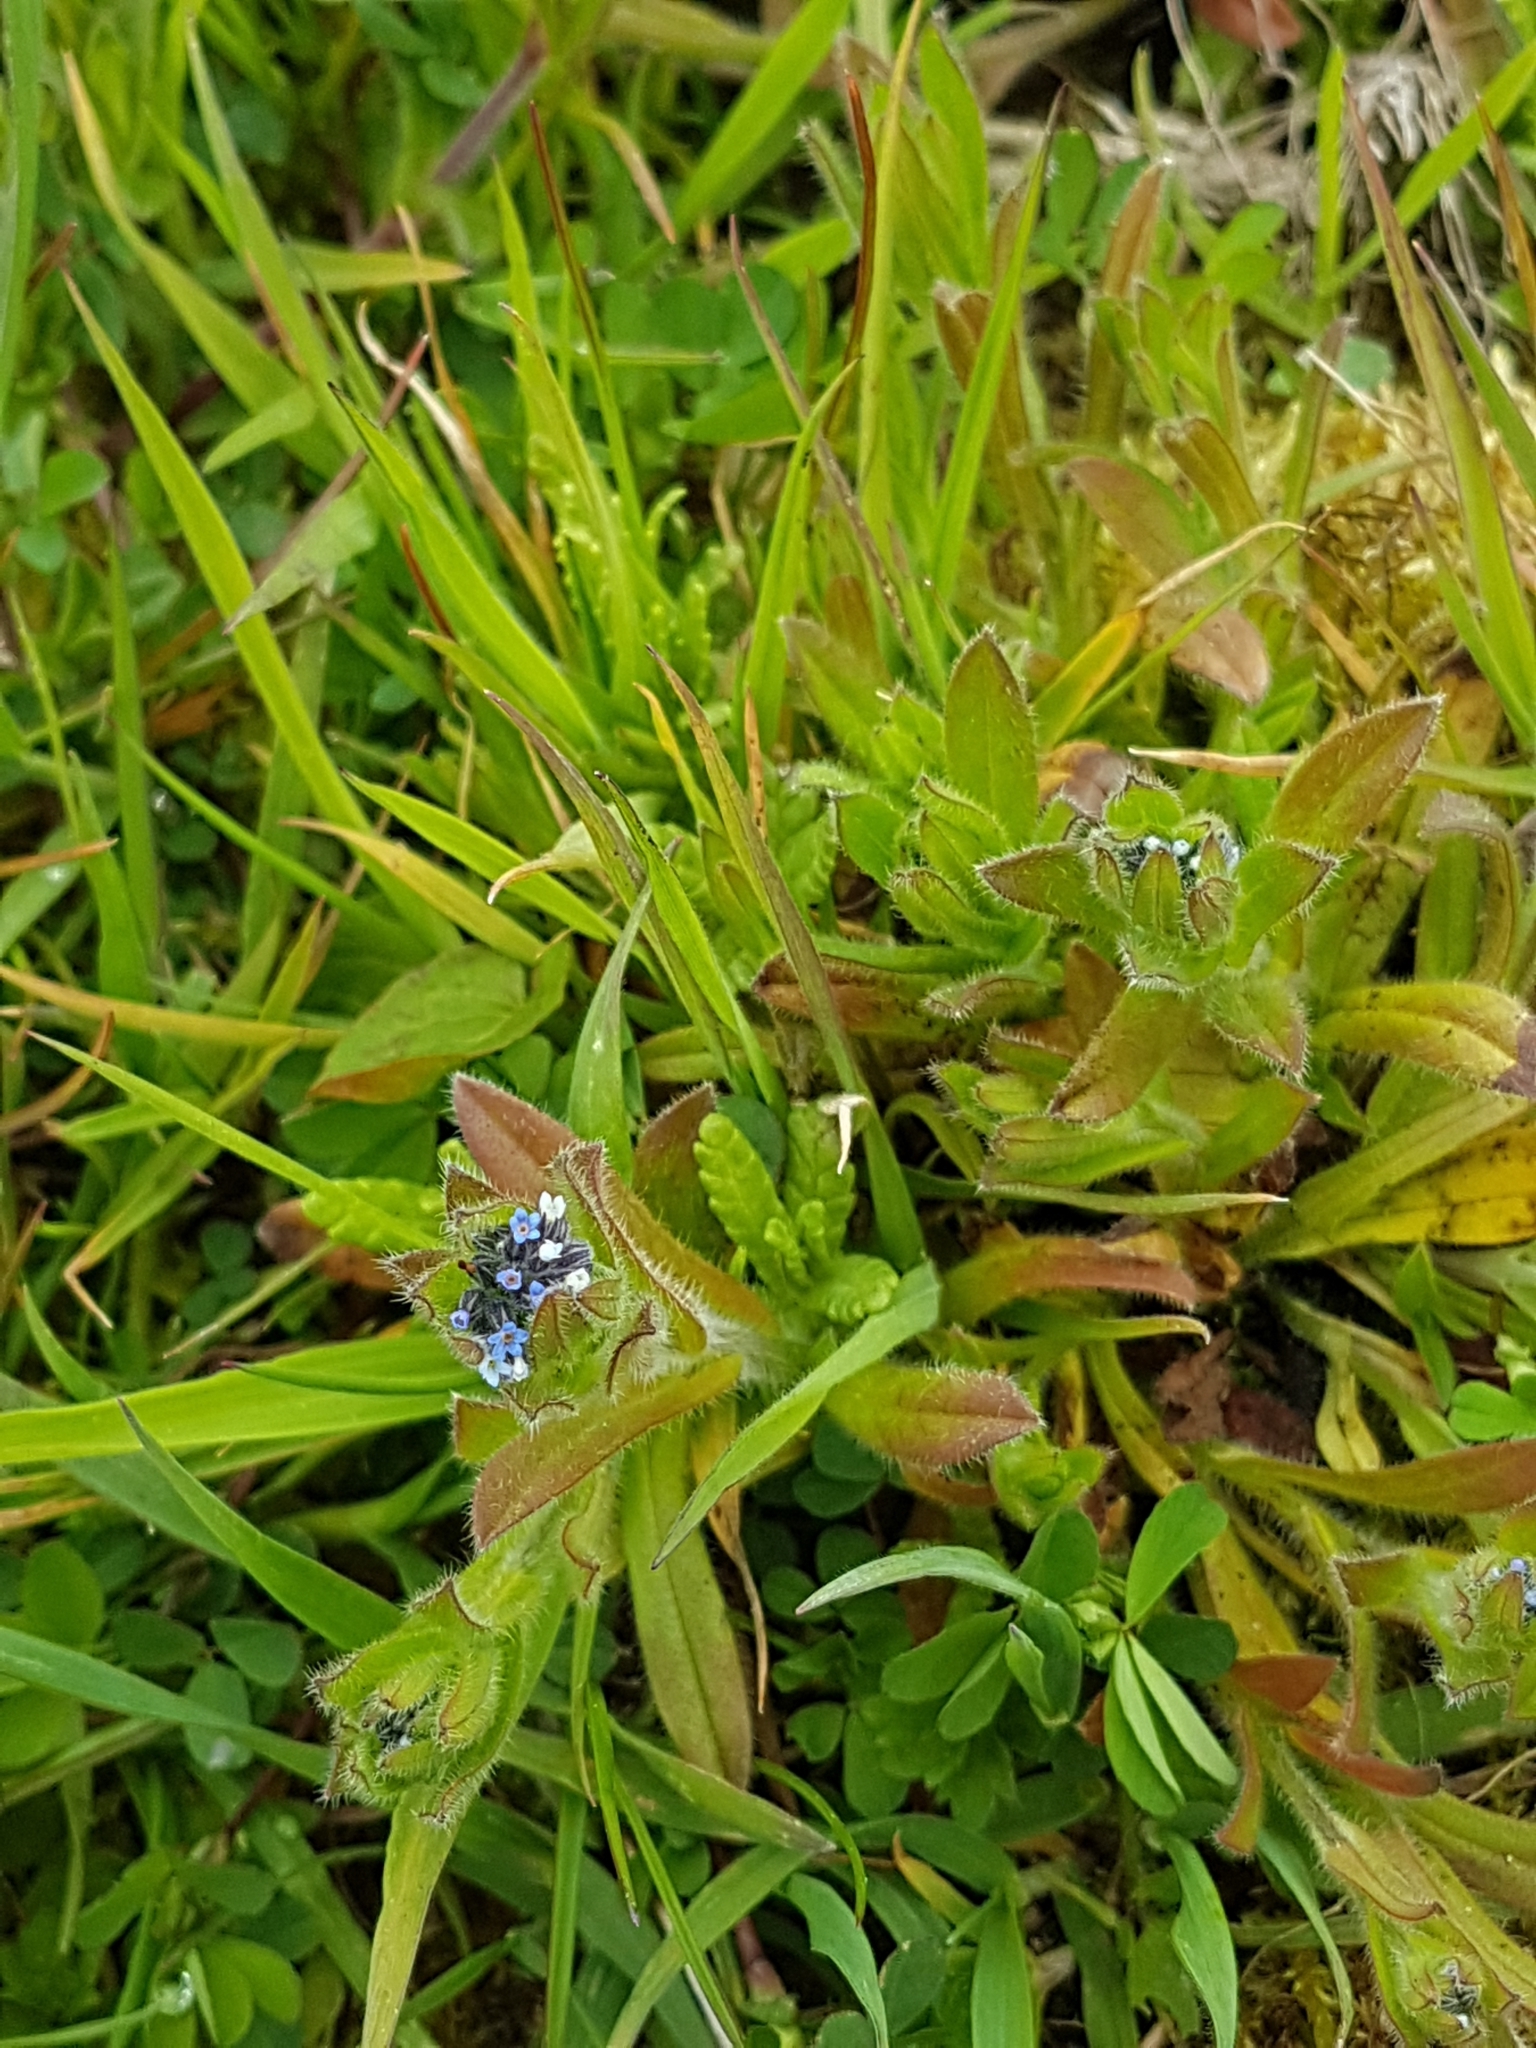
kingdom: Plantae
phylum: Tracheophyta
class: Magnoliopsida
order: Boraginales
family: Boraginaceae
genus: Myosotis
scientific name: Myosotis discolor
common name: Changing forget-me-not
